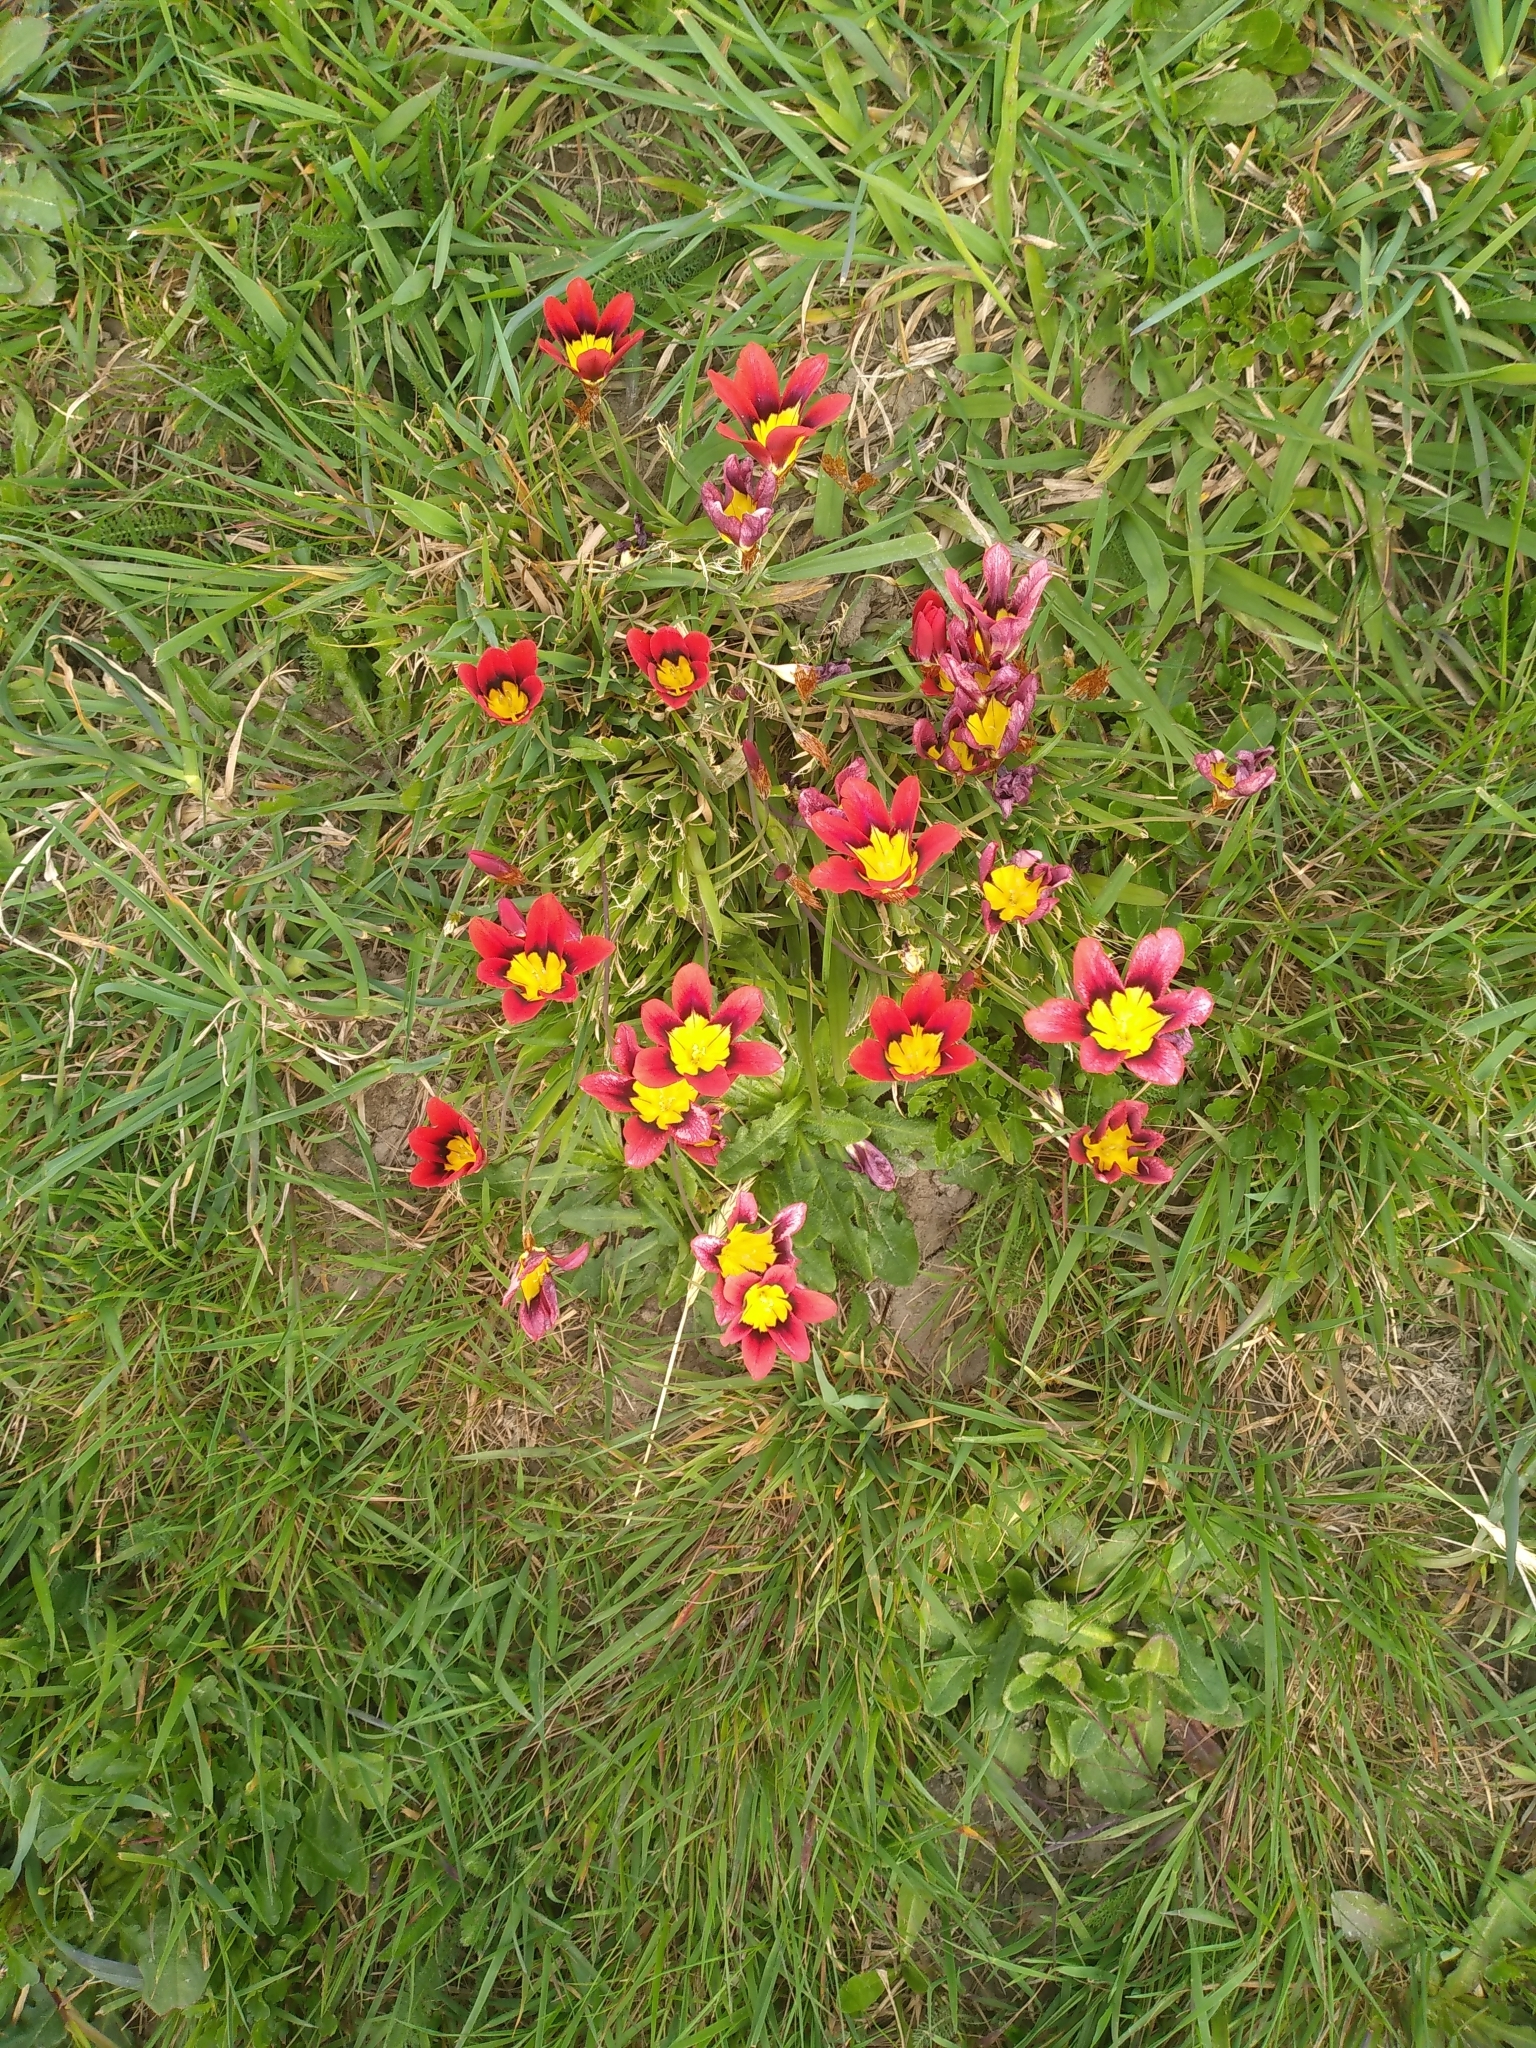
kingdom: Plantae
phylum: Tracheophyta
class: Liliopsida
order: Asparagales
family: Iridaceae
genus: Sparaxis
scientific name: Sparaxis tricolor
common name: Wandflower
